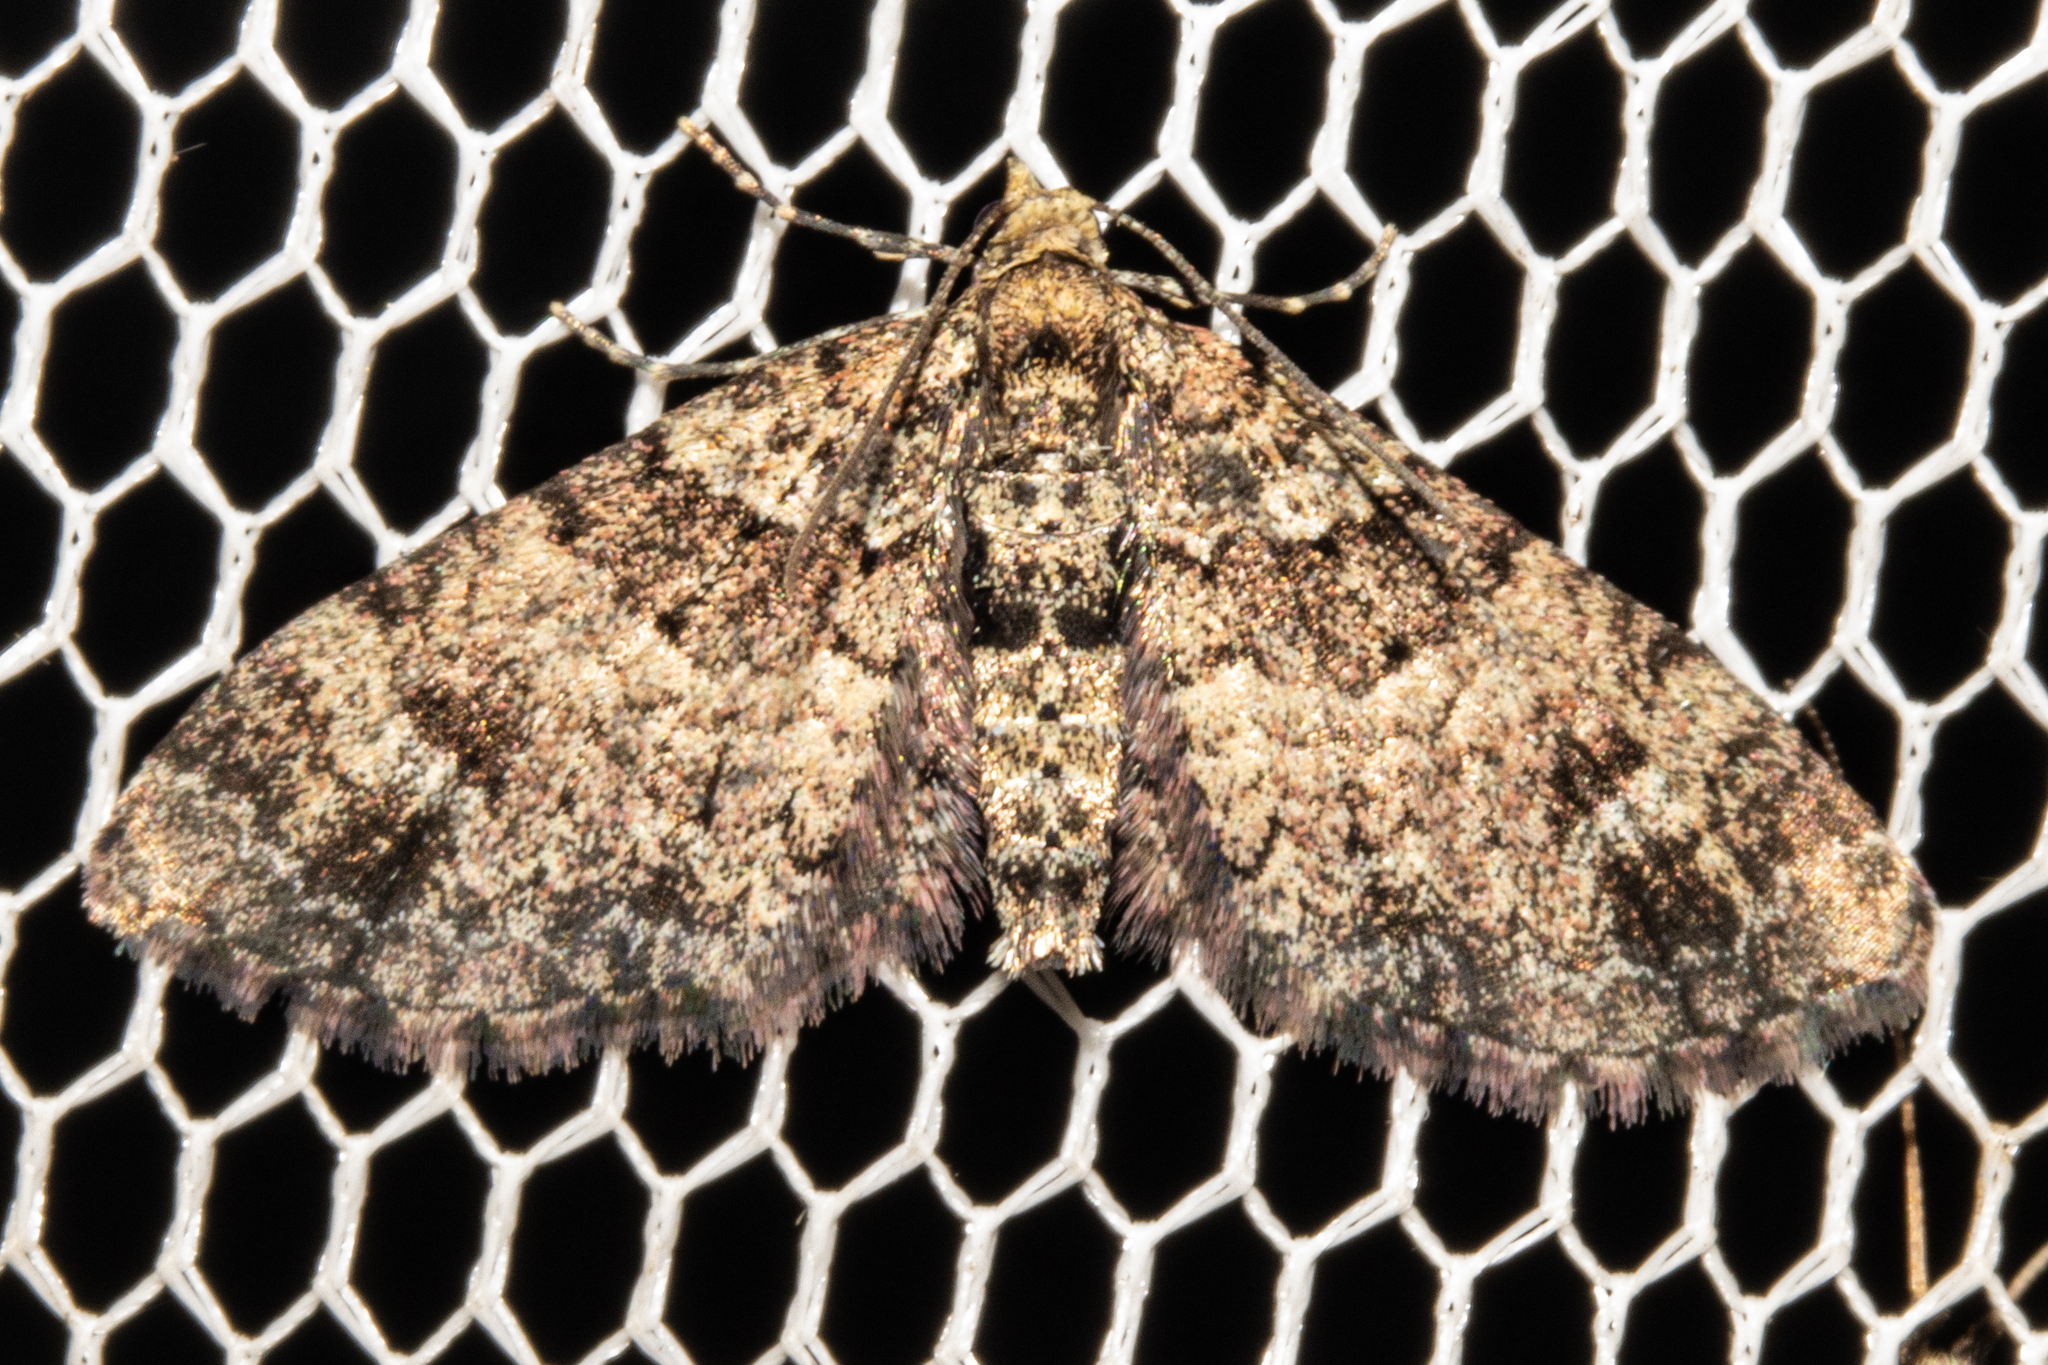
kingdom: Animalia
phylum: Arthropoda
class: Insecta
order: Lepidoptera
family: Geometridae
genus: Pasiphila
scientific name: Pasiphila bilineolata
